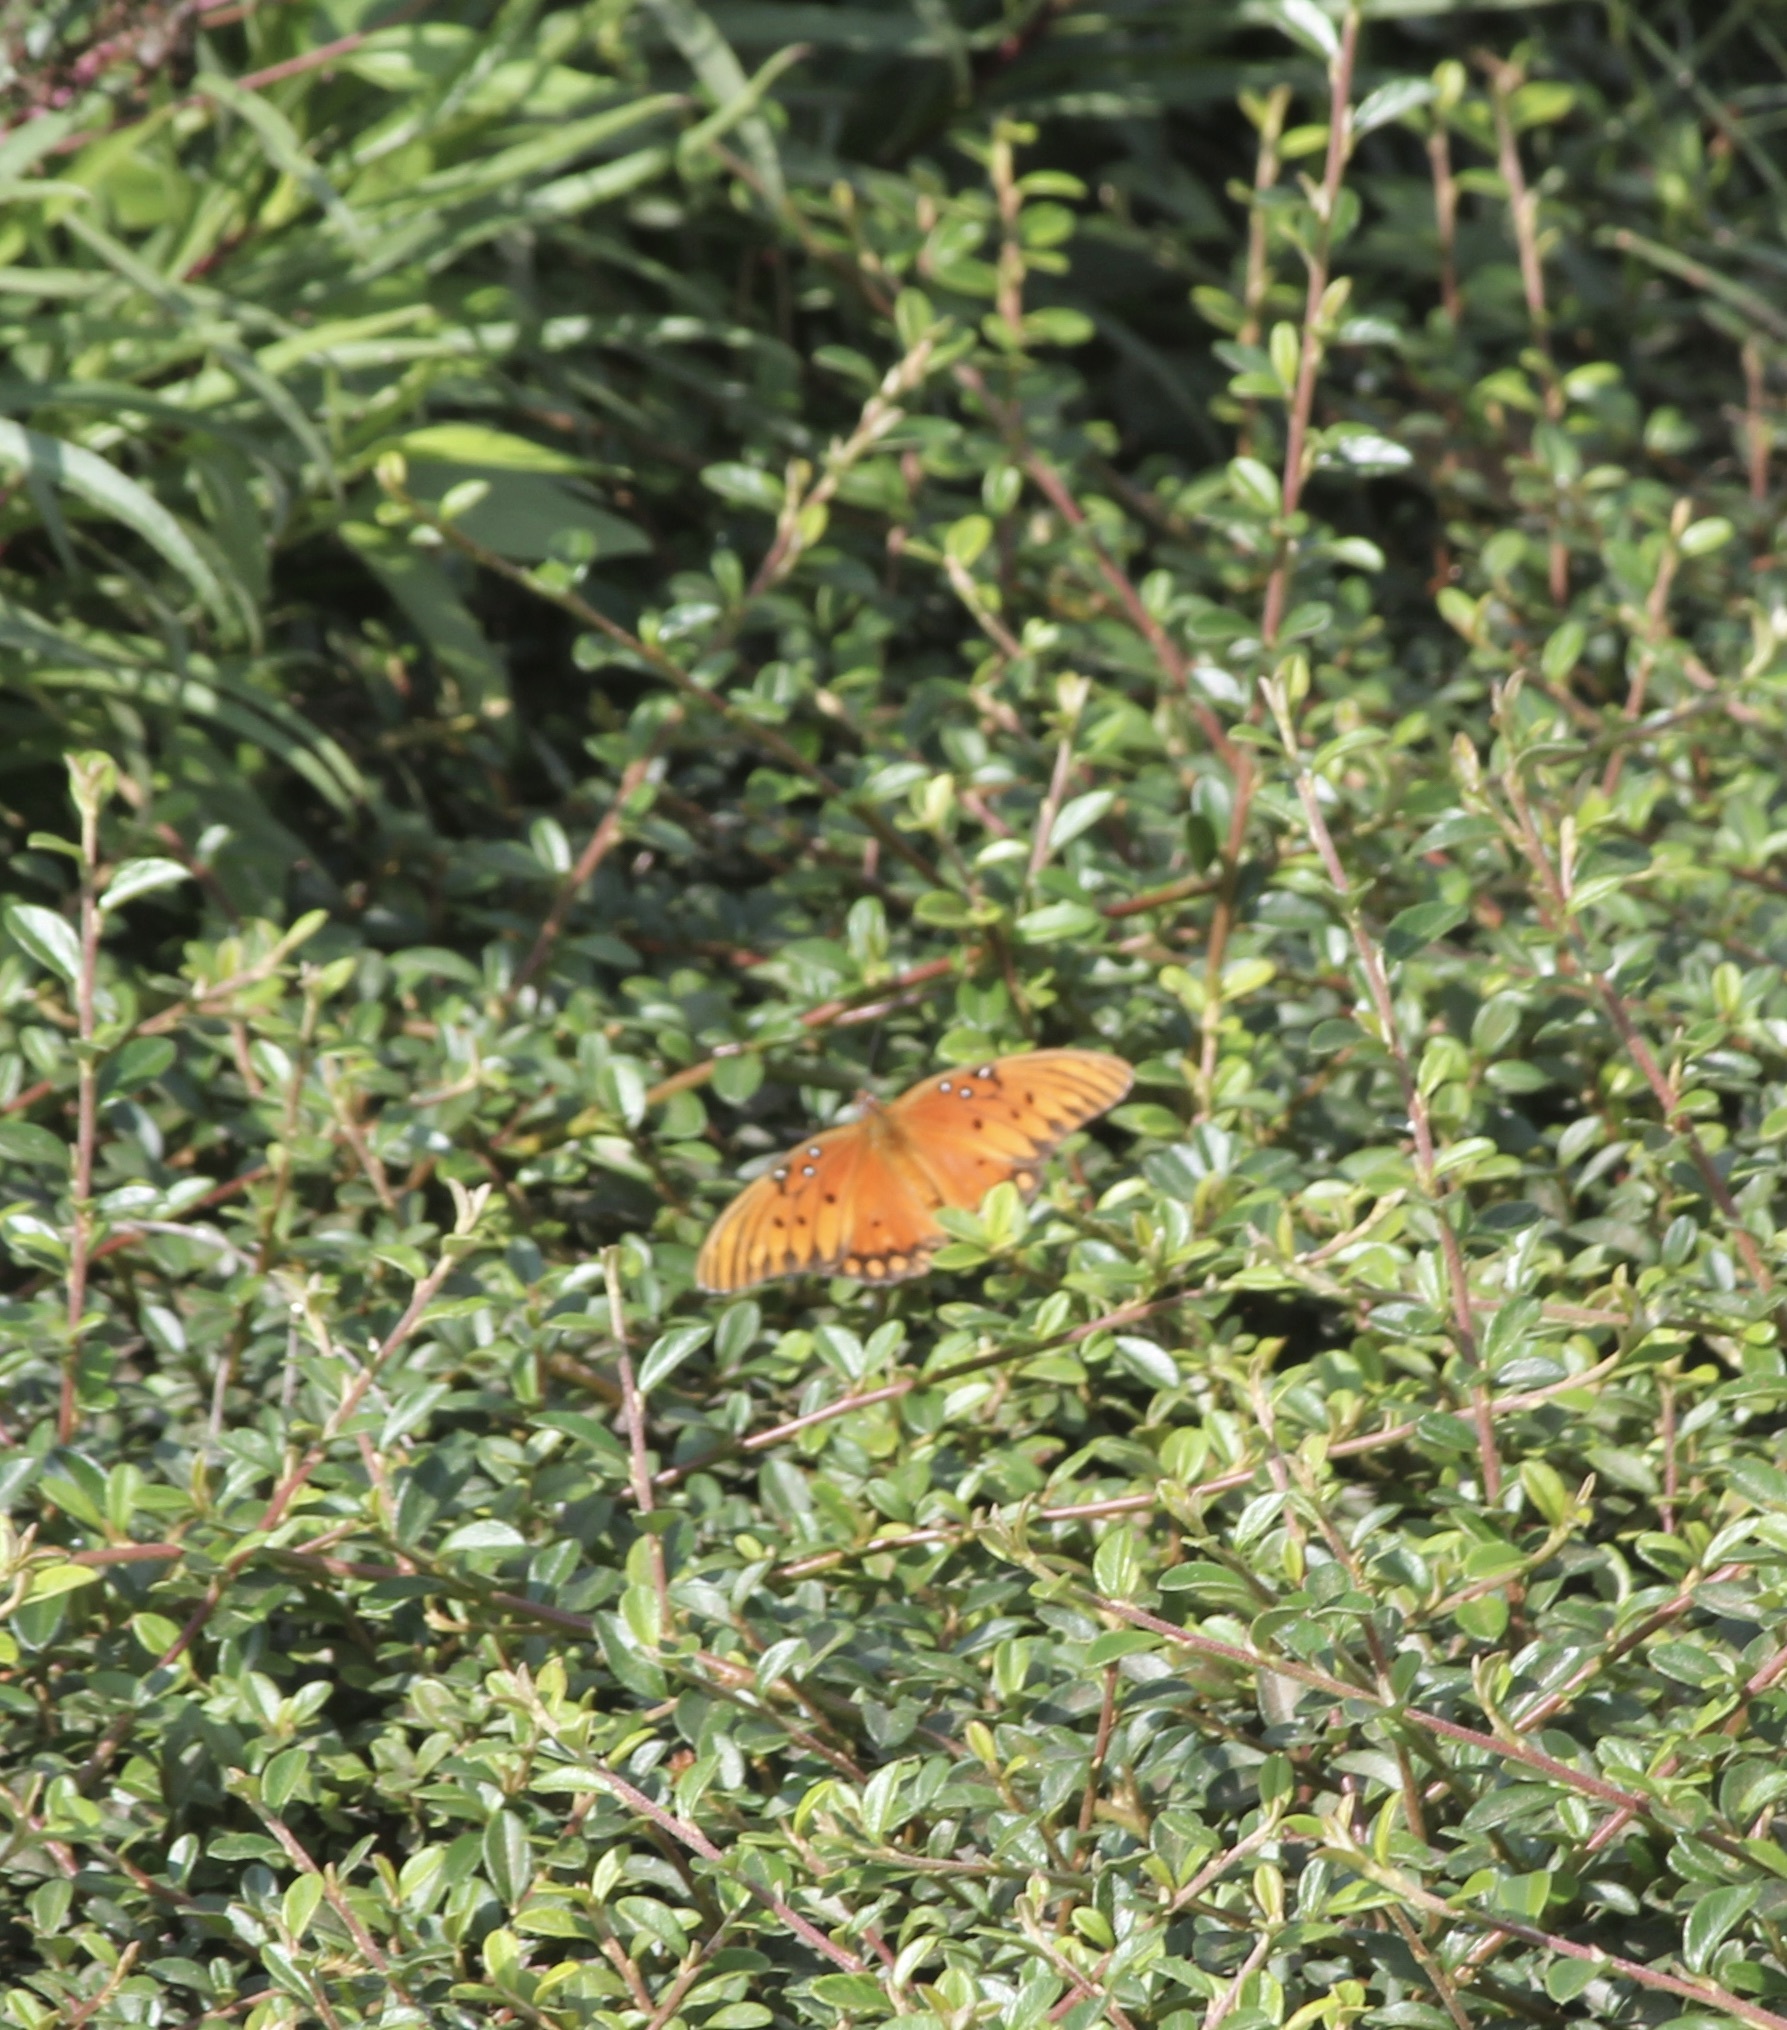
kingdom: Animalia
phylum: Arthropoda
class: Insecta
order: Lepidoptera
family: Nymphalidae
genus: Dione
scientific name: Dione vanillae
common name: Gulf fritillary
